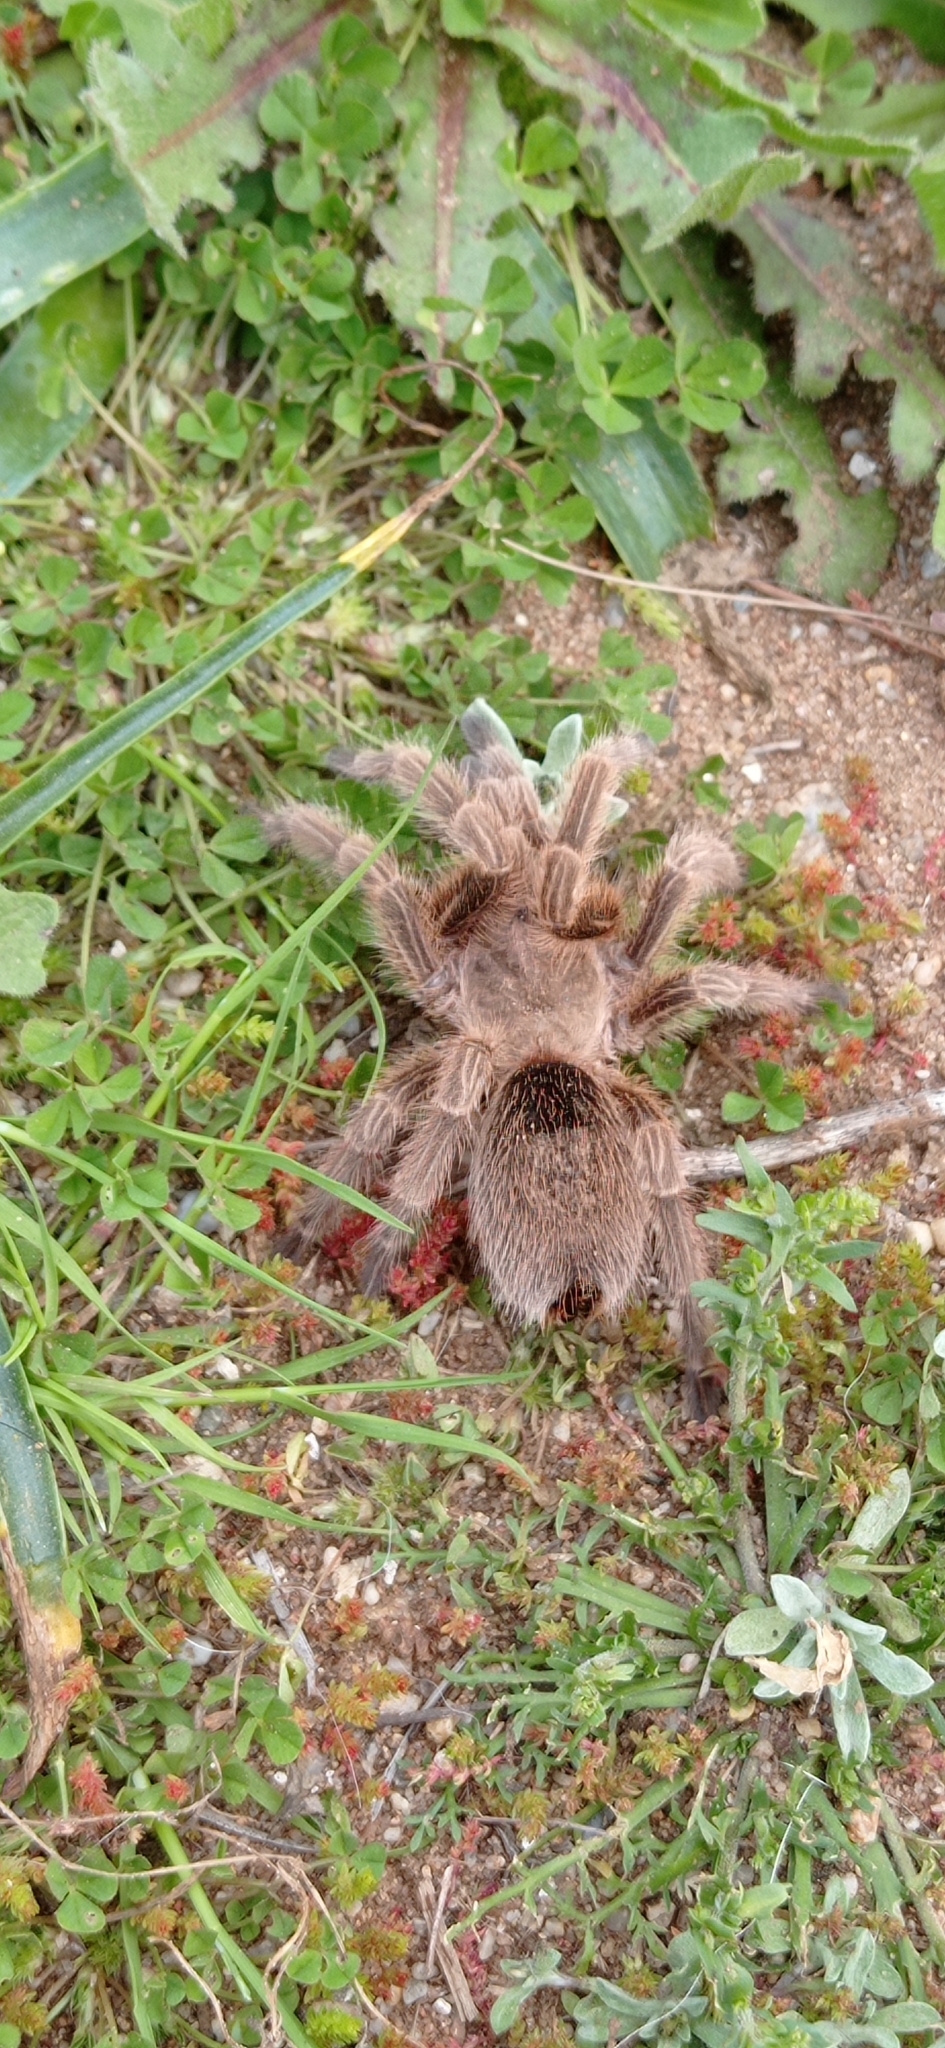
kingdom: Animalia
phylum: Arthropoda
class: Arachnida
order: Araneae
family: Theraphosidae
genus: Grammostola
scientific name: Grammostola rosea
